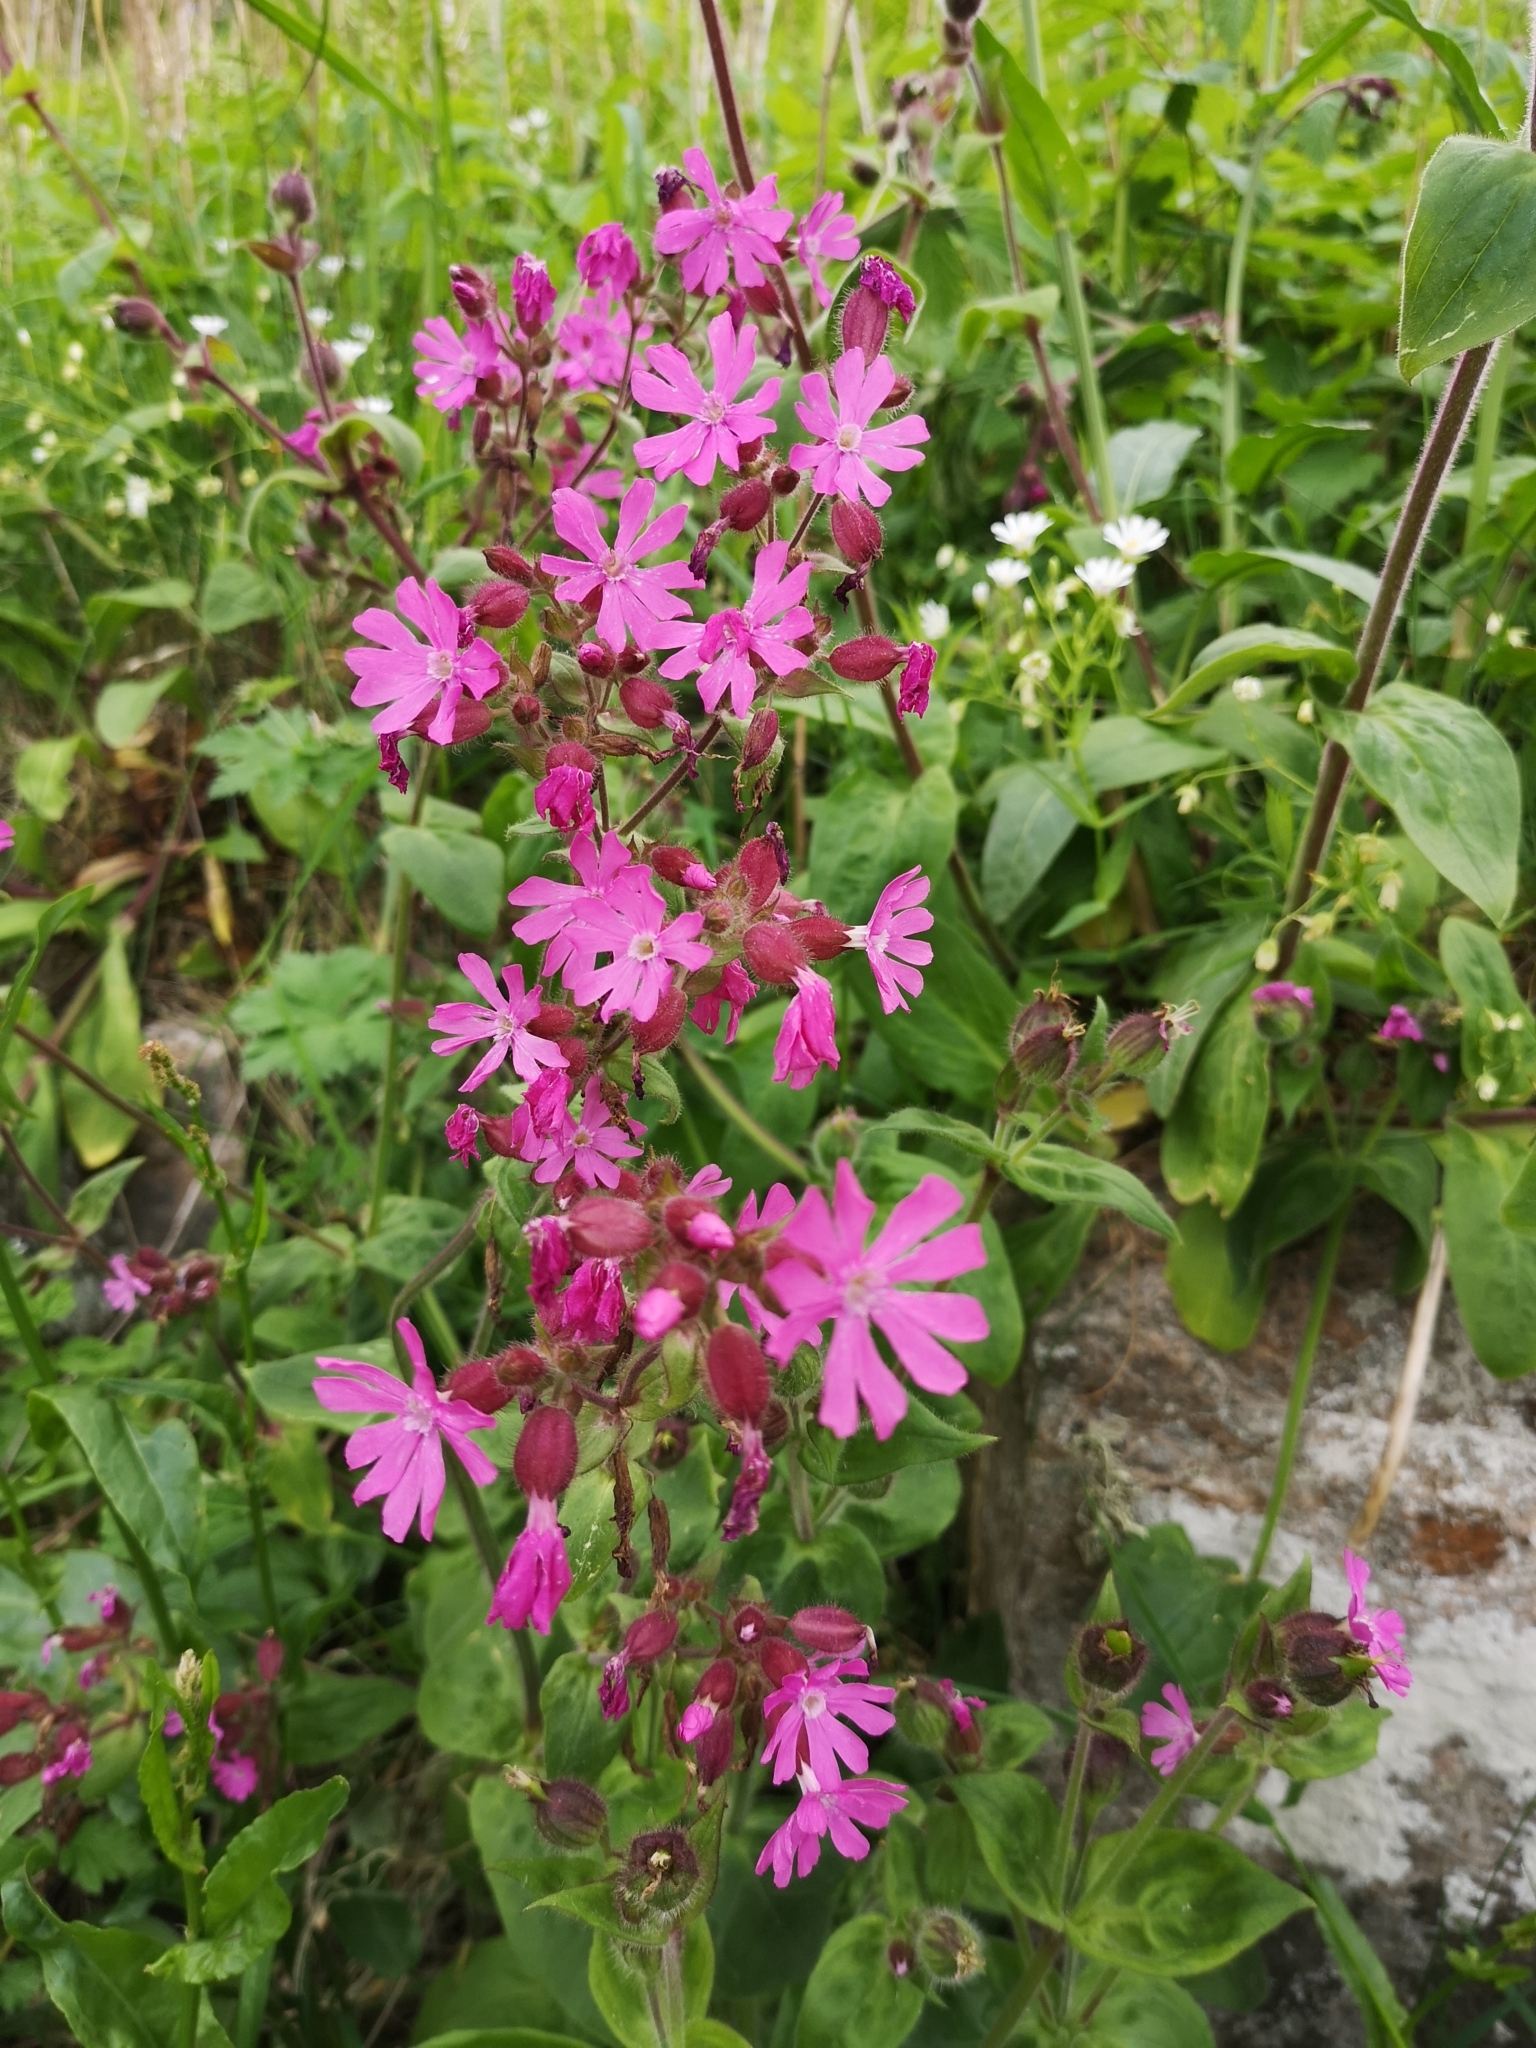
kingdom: Plantae
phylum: Tracheophyta
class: Magnoliopsida
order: Caryophyllales
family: Caryophyllaceae
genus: Silene
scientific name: Silene dioica
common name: Red campion
